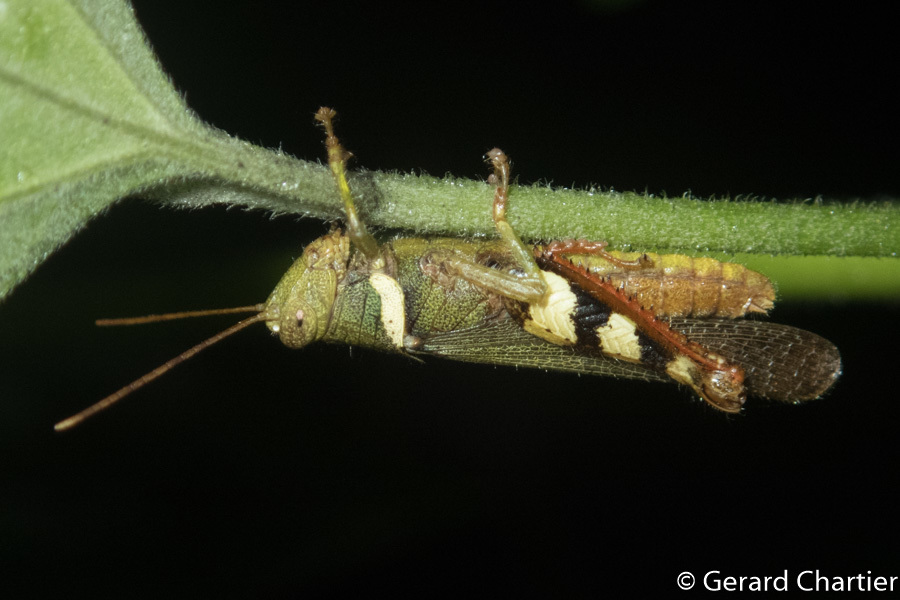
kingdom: Animalia
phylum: Arthropoda
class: Insecta
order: Orthoptera
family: Acrididae
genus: Apalacris
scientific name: Apalacris varicornis
